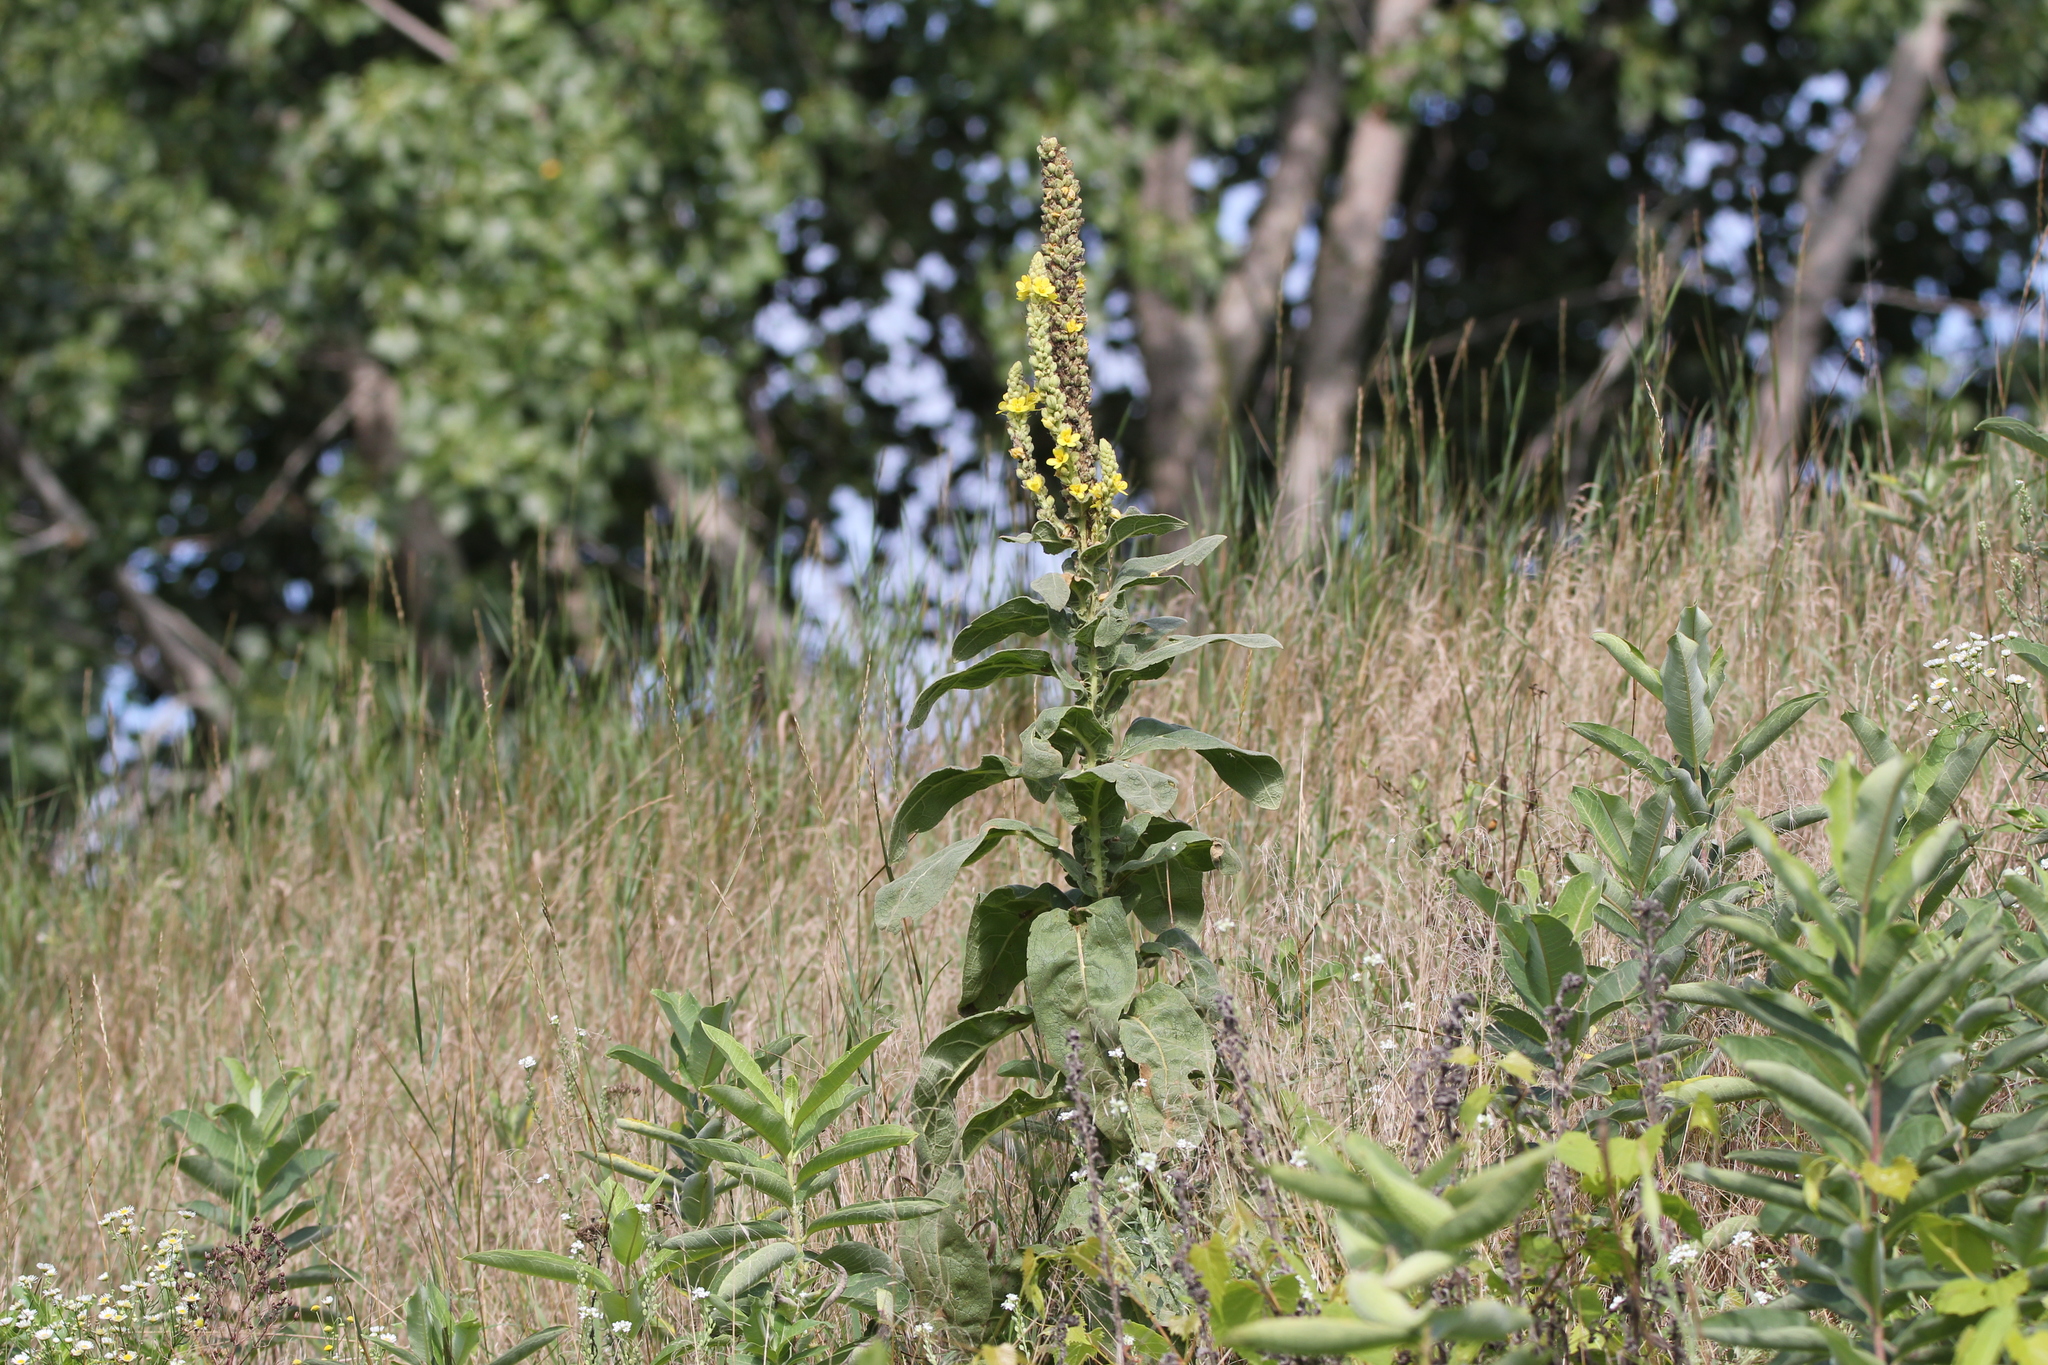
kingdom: Plantae
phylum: Tracheophyta
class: Magnoliopsida
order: Lamiales
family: Scrophulariaceae
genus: Verbascum
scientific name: Verbascum thapsus
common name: Common mullein
